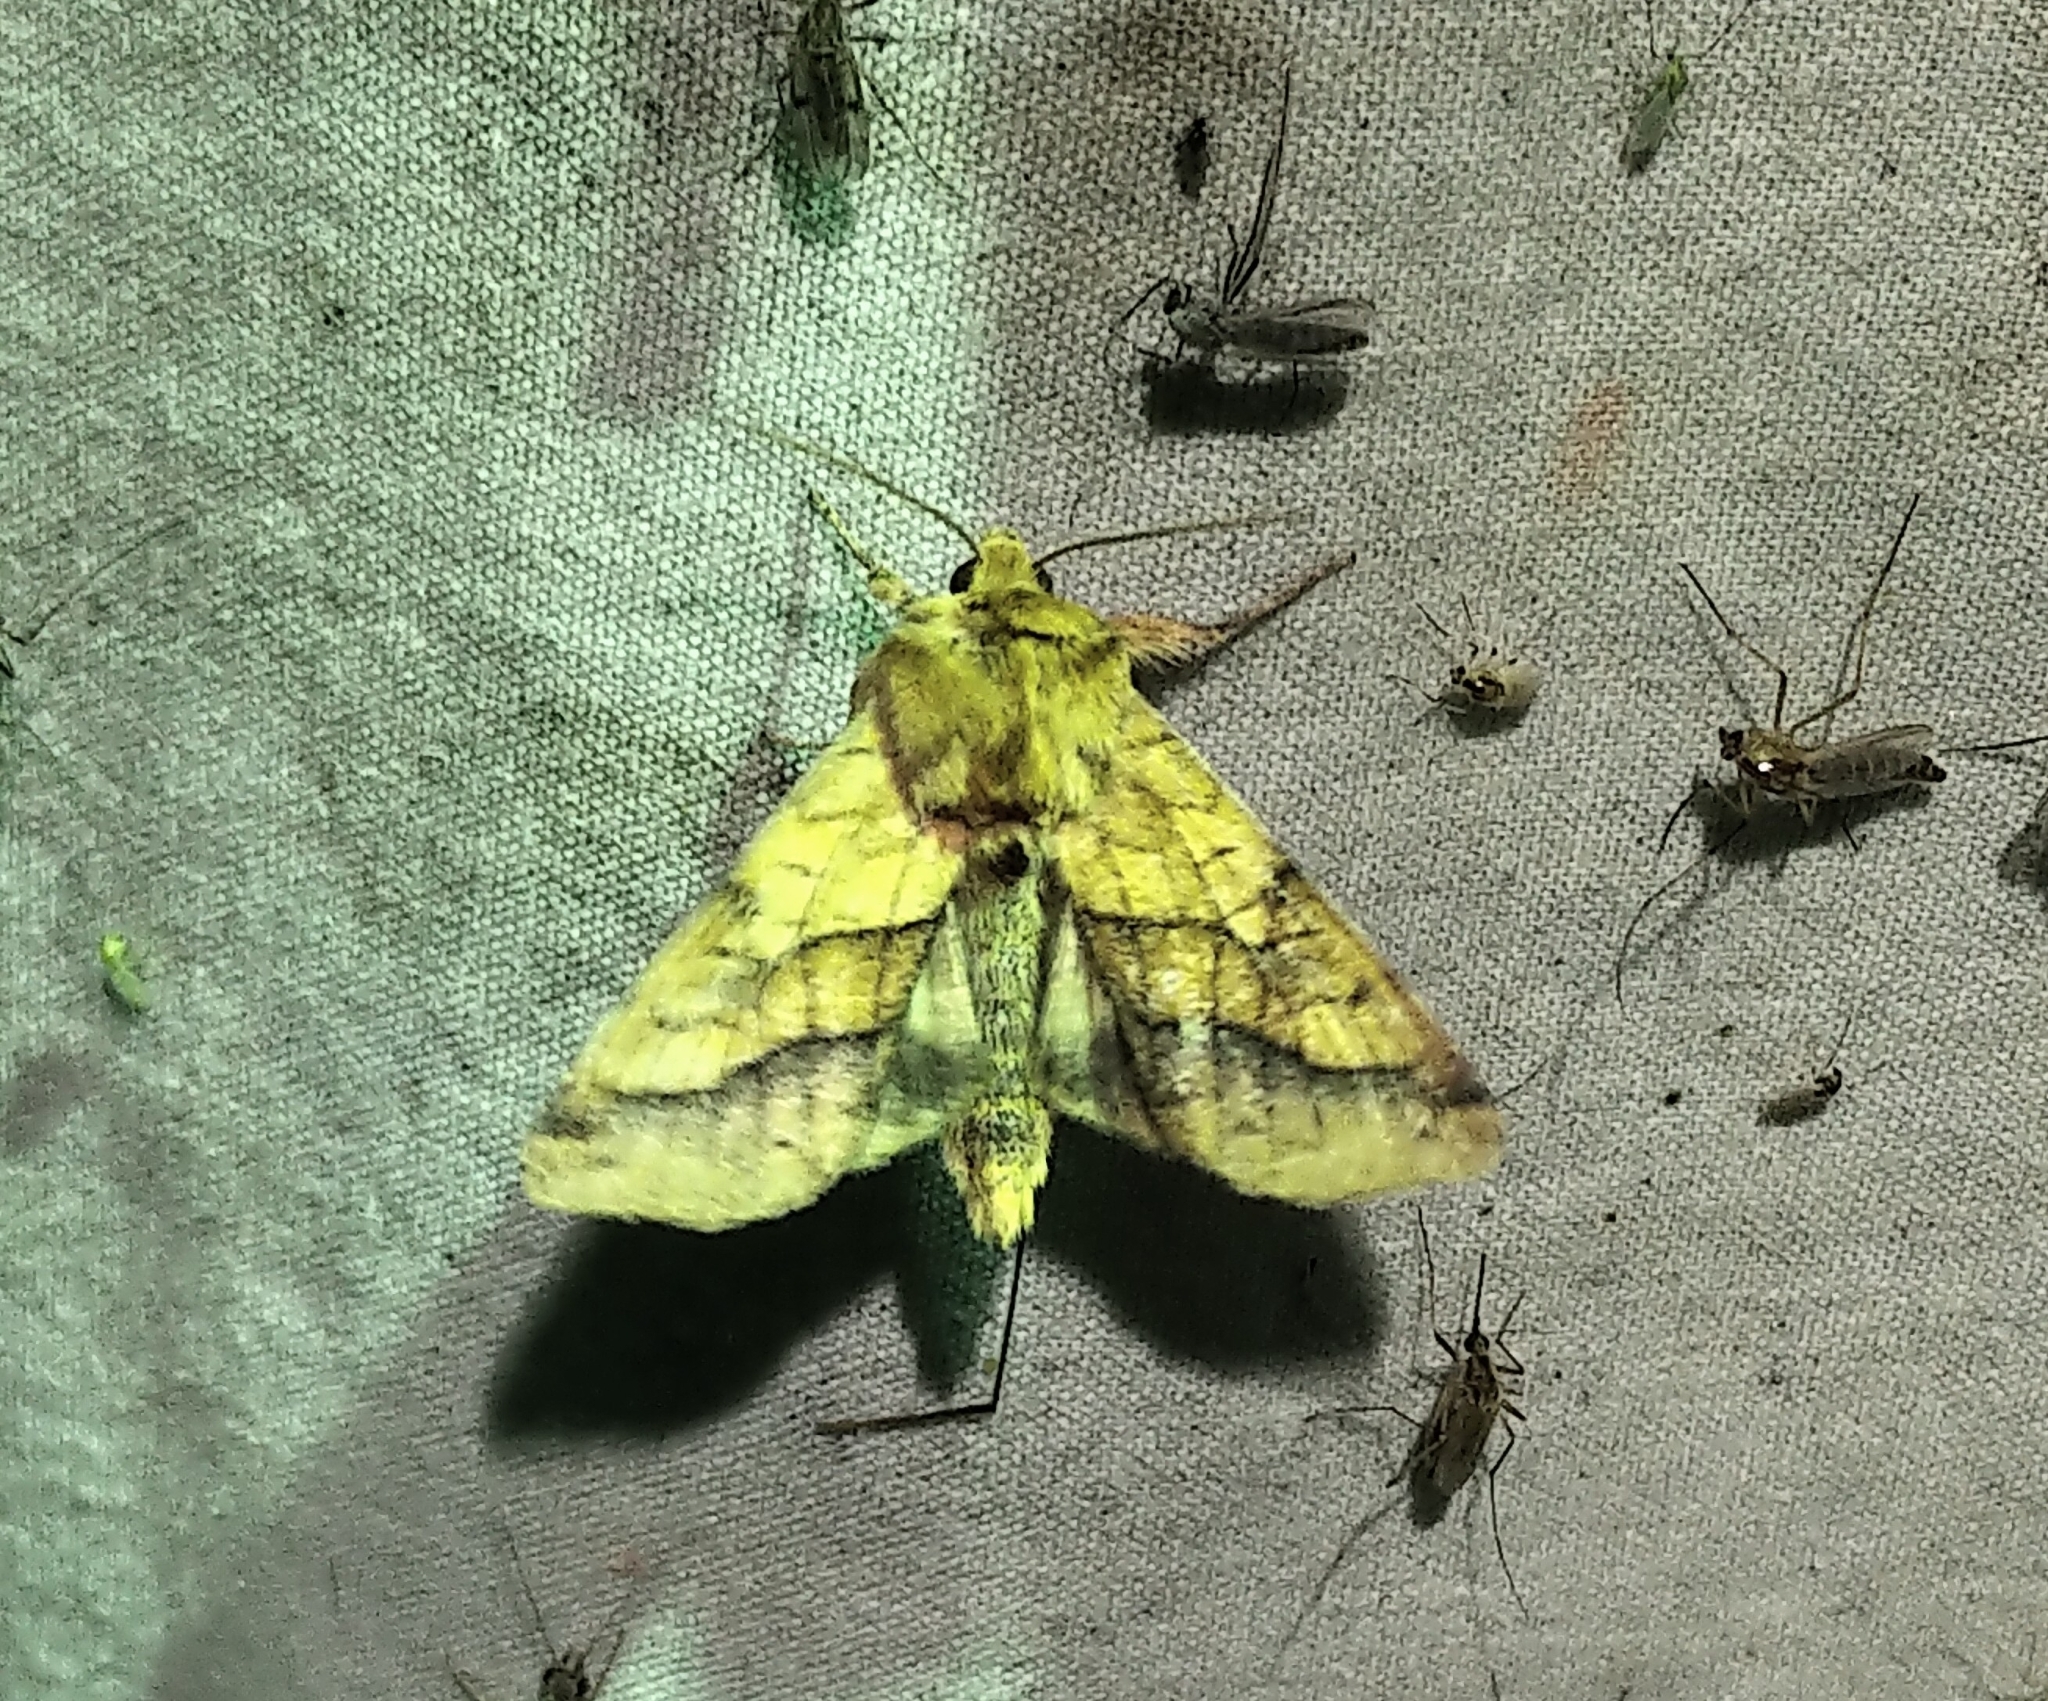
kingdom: Animalia
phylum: Arthropoda
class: Insecta
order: Lepidoptera
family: Noctuidae
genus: Pyrrhia
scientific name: Pyrrhia exprimens
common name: Purple-lined sallow
